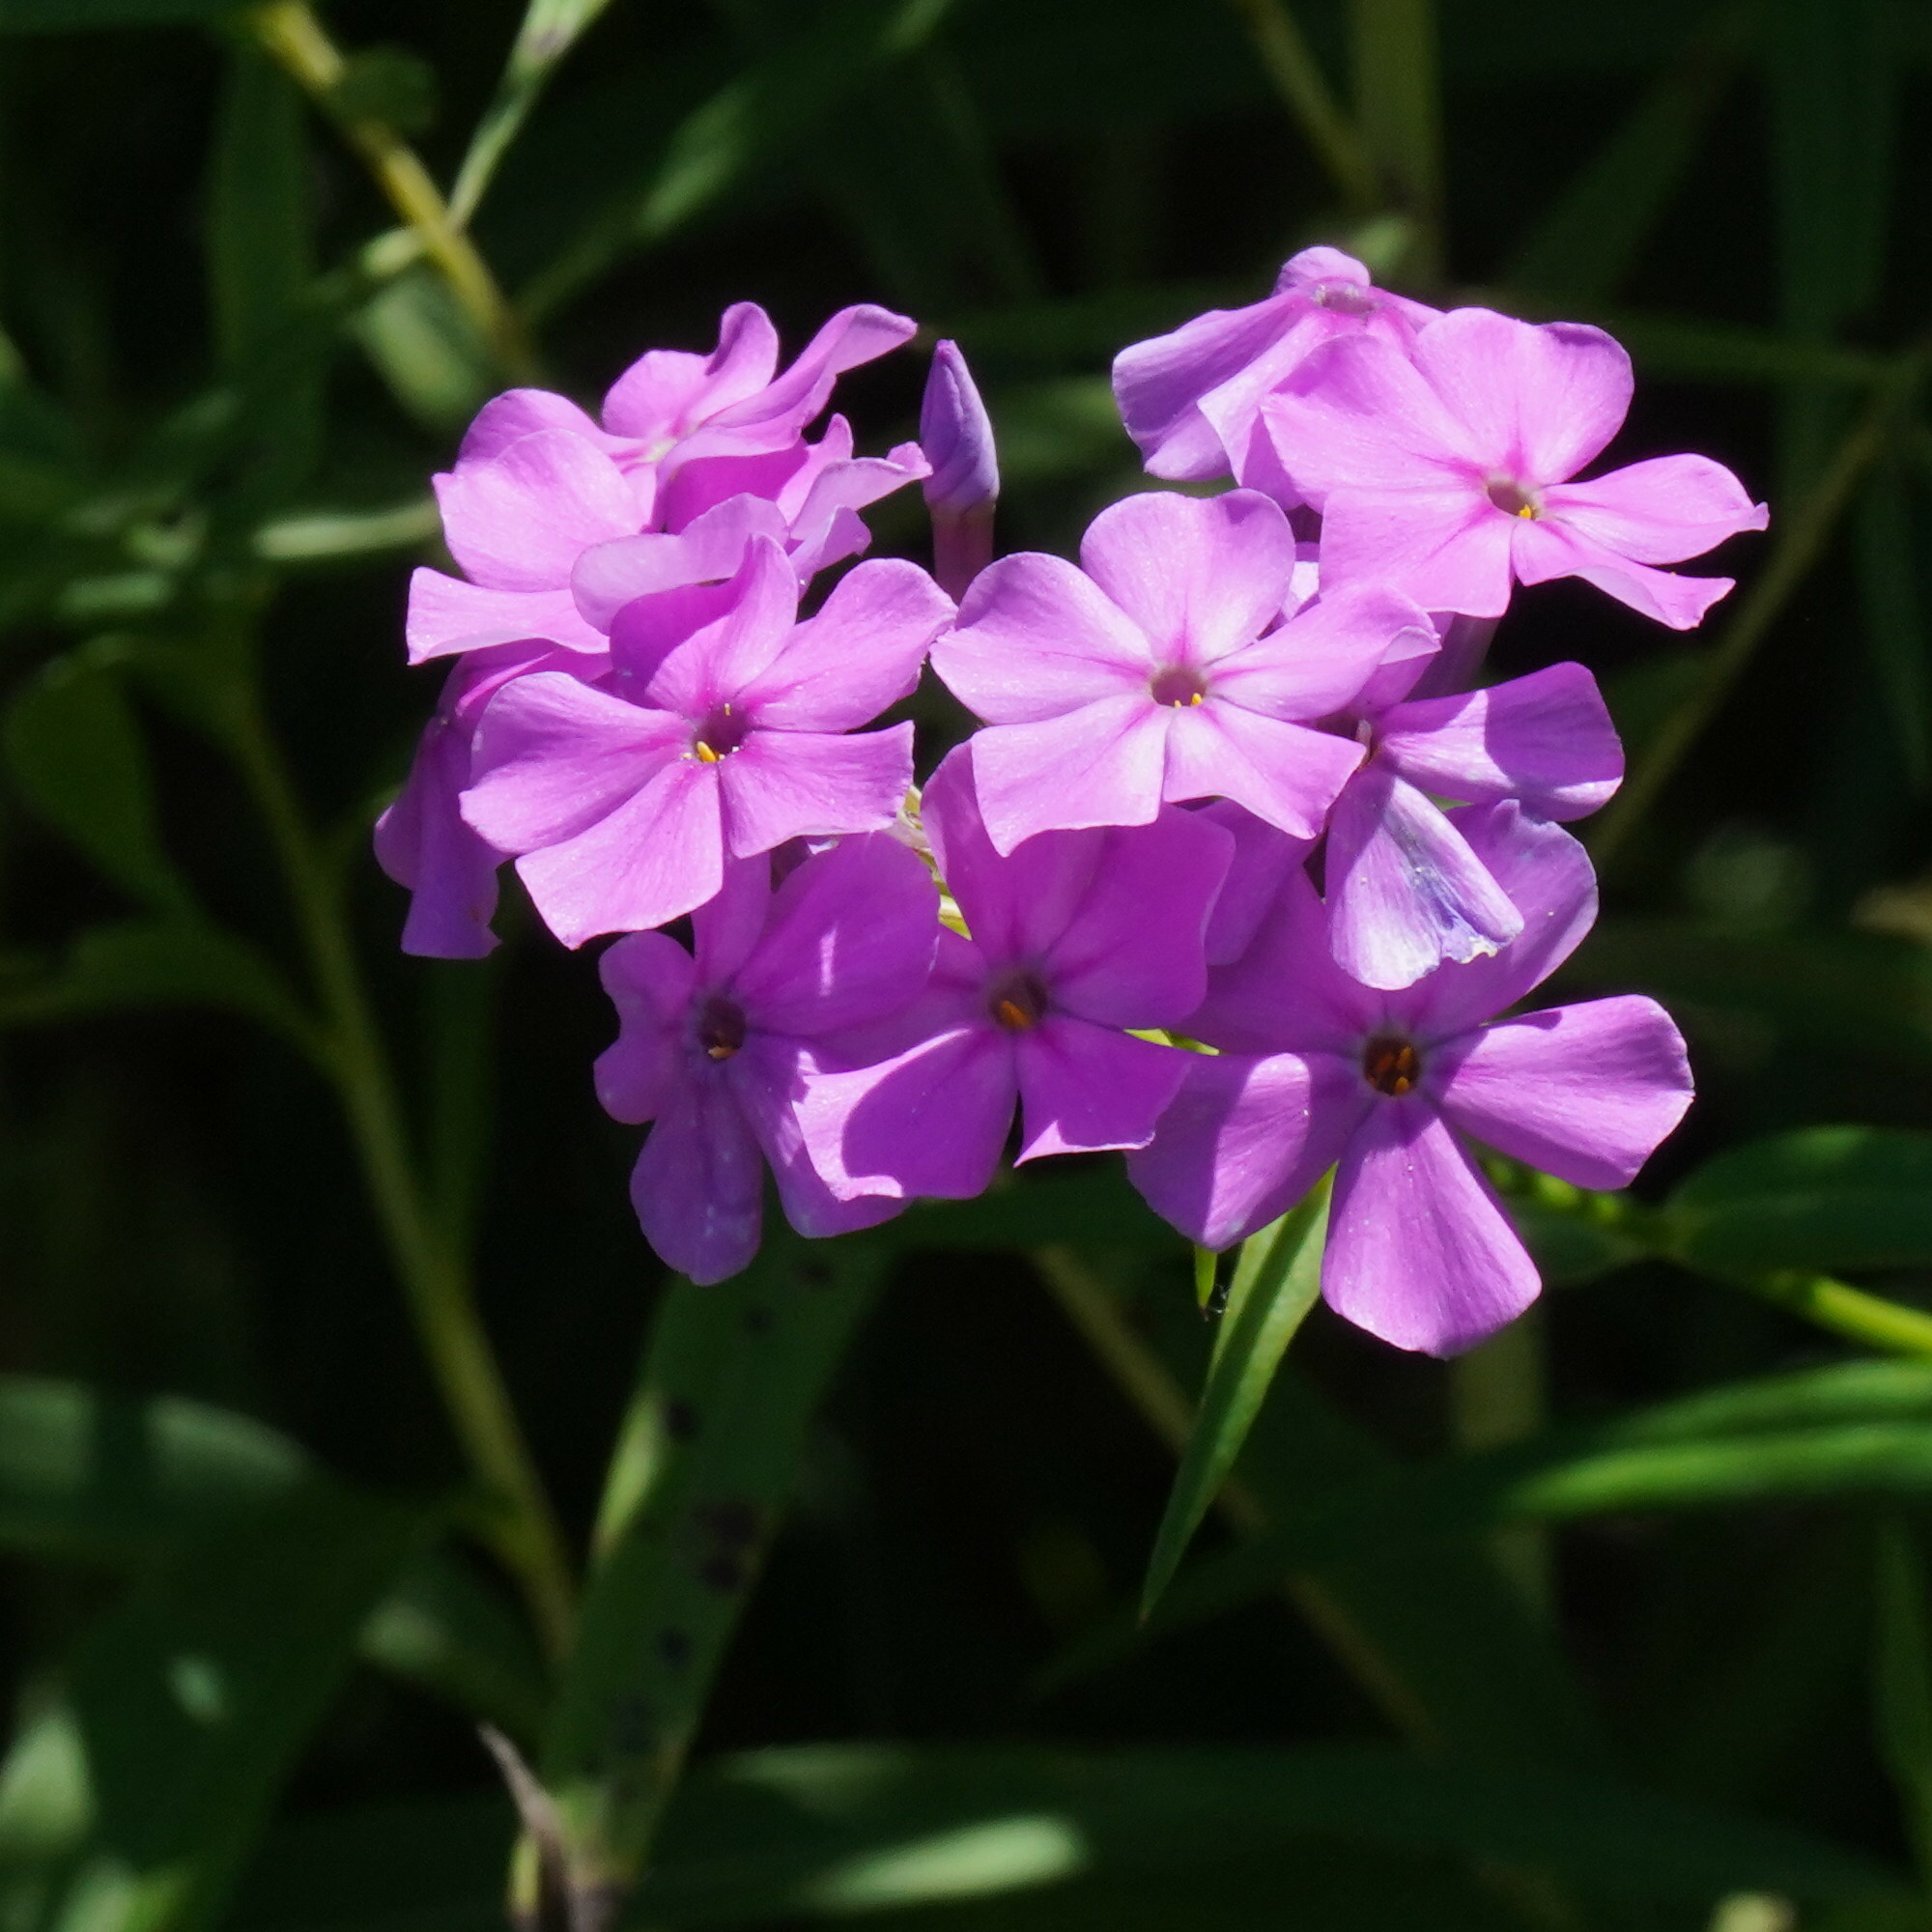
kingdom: Plantae
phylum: Tracheophyta
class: Magnoliopsida
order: Ericales
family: Polemoniaceae
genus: Phlox
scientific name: Phlox glaberrima
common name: Smooth phlox
